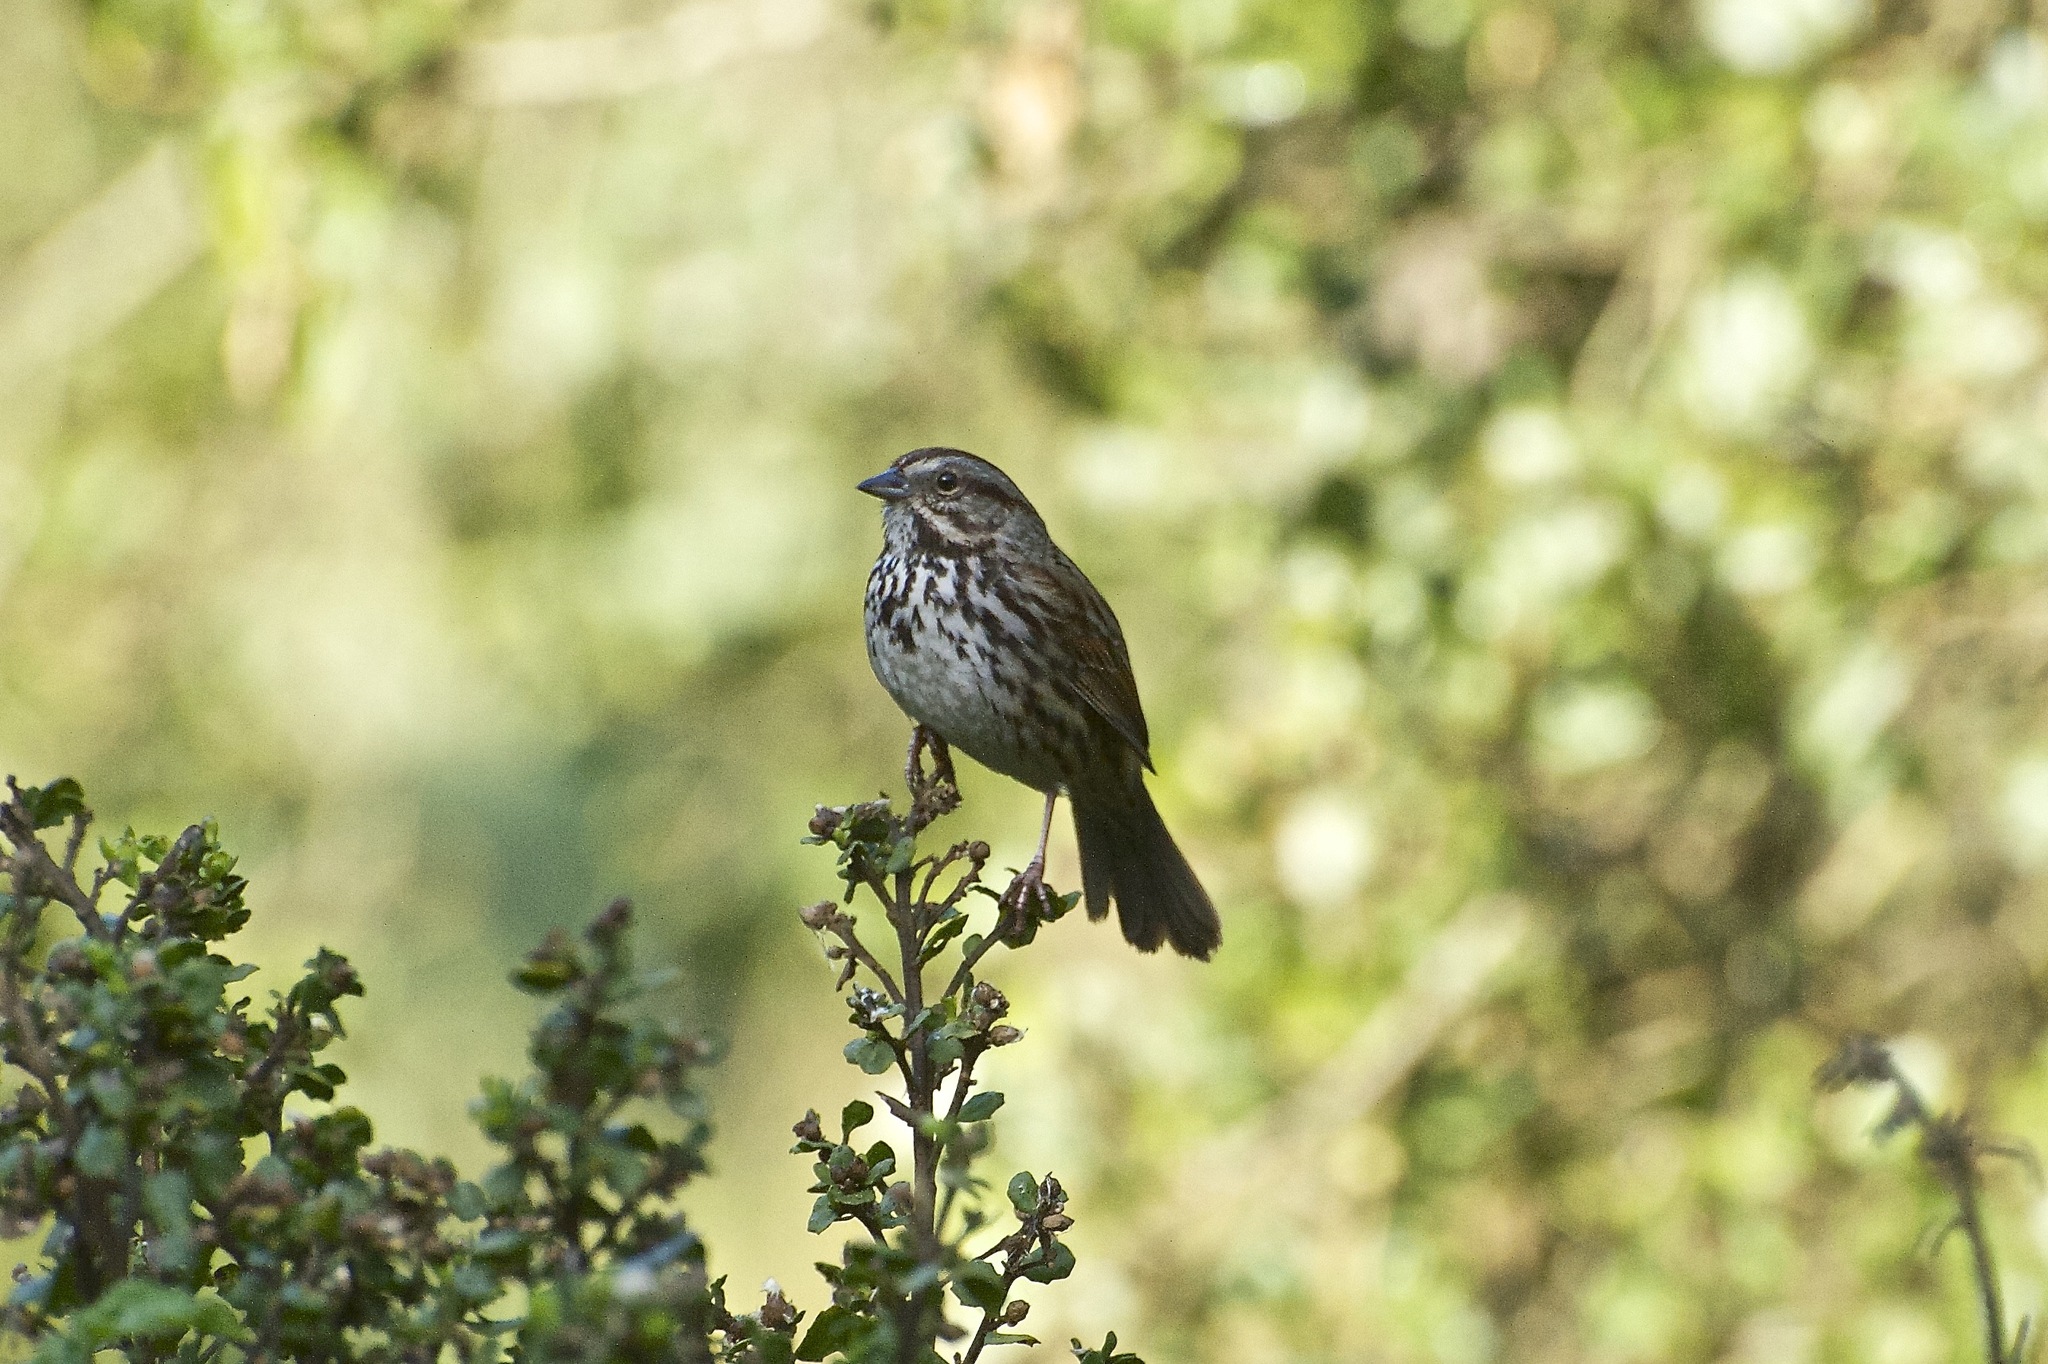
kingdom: Animalia
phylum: Chordata
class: Aves
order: Passeriformes
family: Passerellidae
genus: Melospiza
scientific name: Melospiza melodia
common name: Song sparrow
